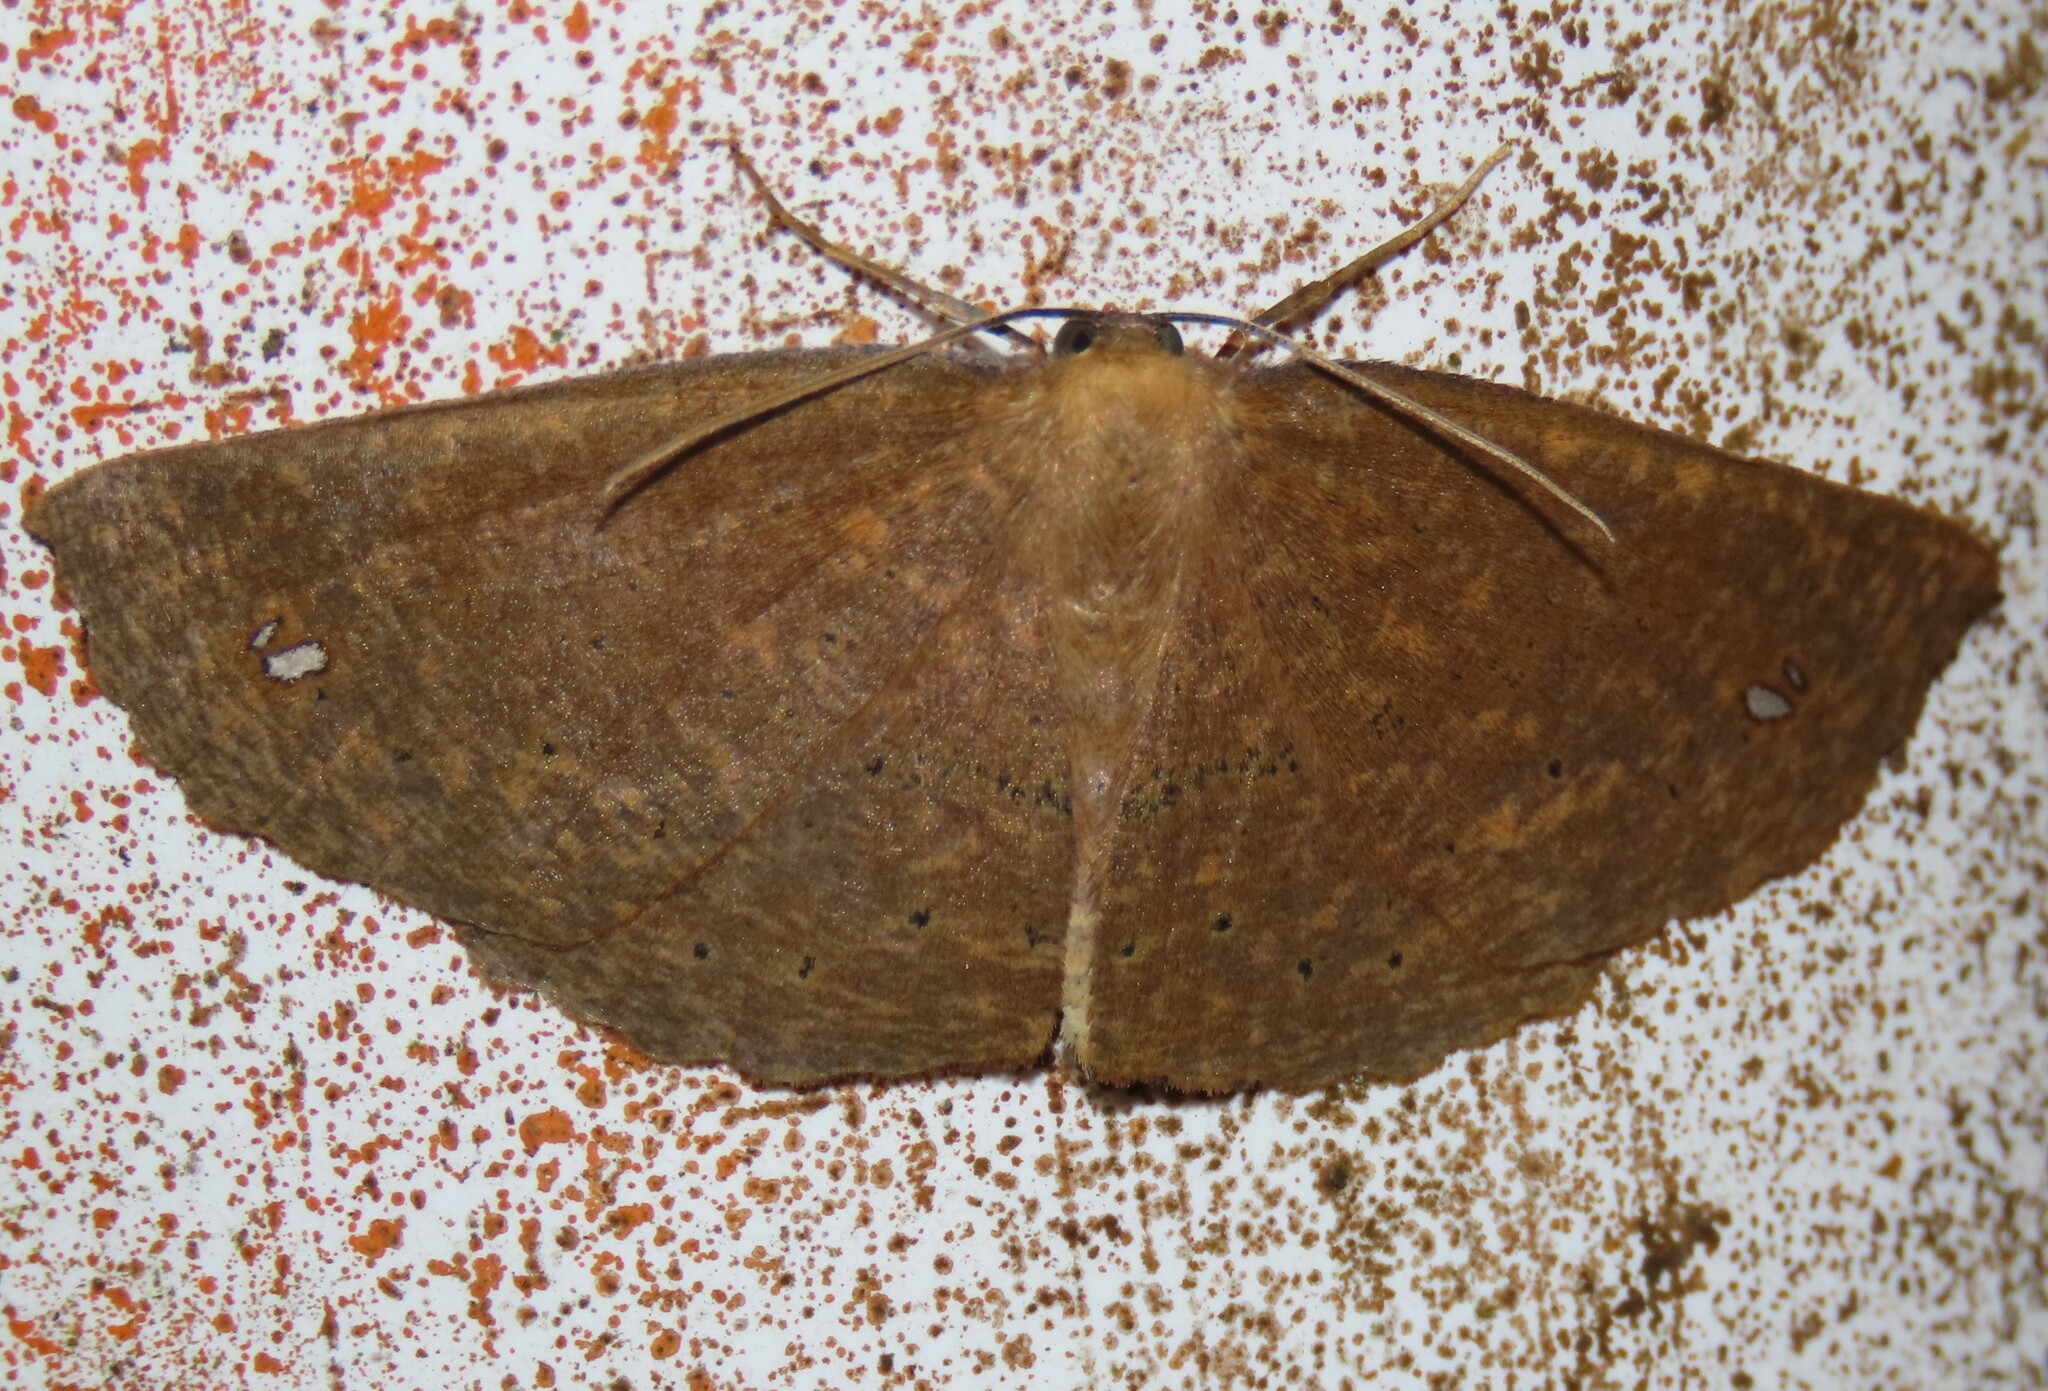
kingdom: Animalia
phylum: Arthropoda
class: Insecta
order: Lepidoptera
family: Geometridae
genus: Xyridacma
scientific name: Xyridacma ustaria
